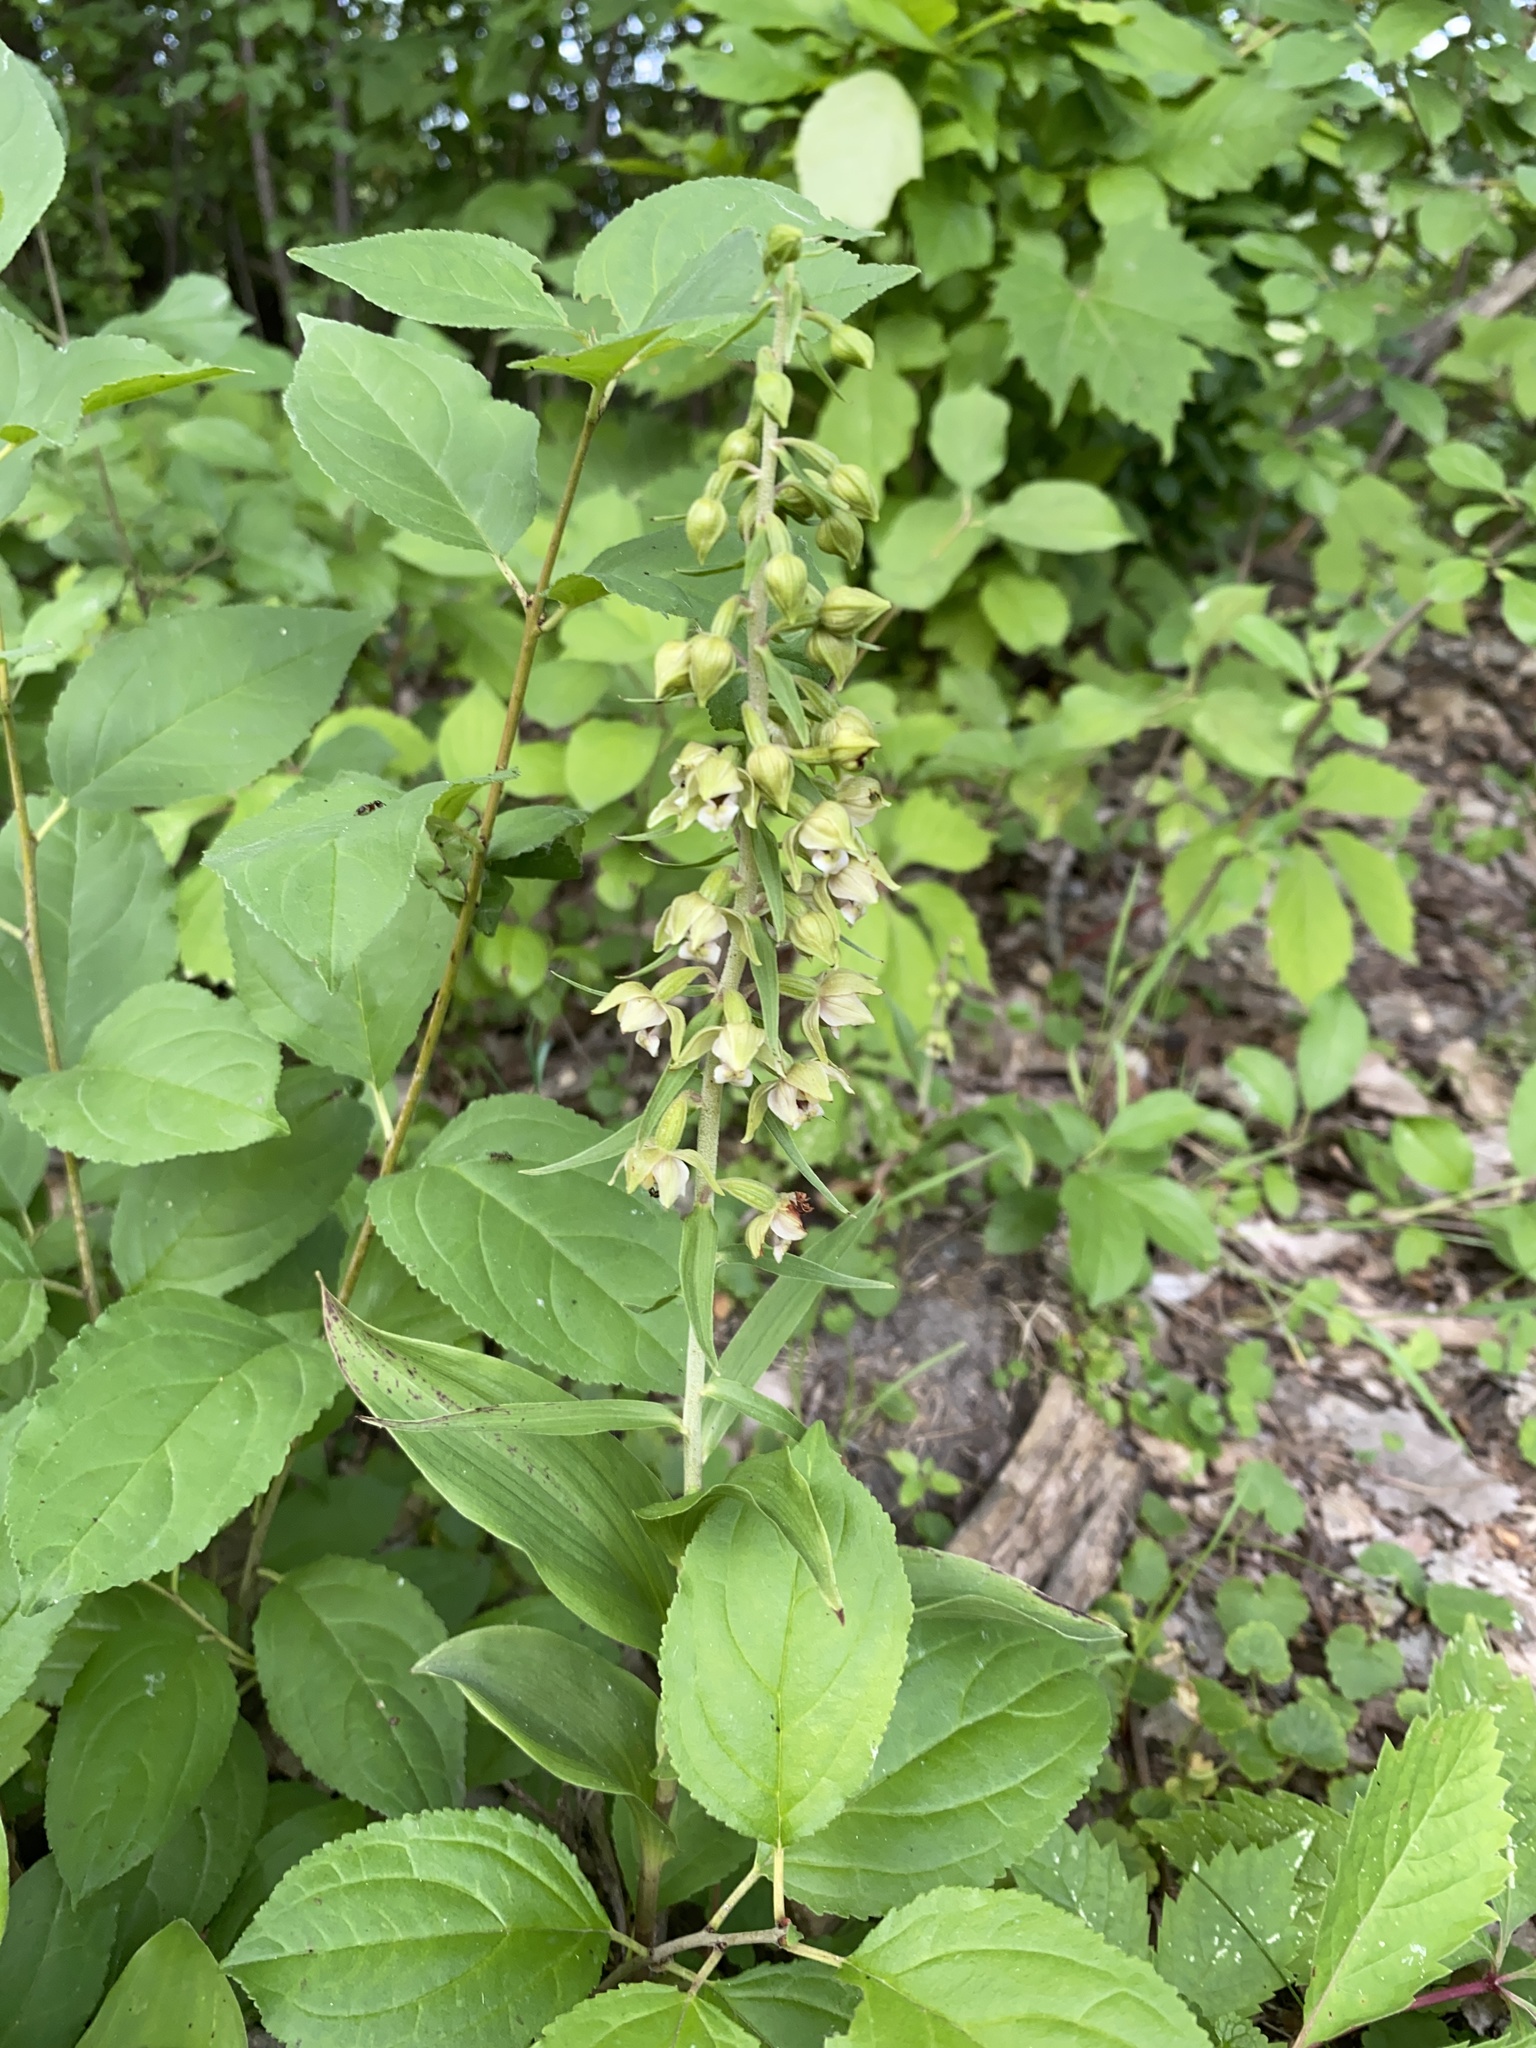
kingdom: Plantae
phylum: Tracheophyta
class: Liliopsida
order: Asparagales
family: Orchidaceae
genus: Epipactis
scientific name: Epipactis helleborine
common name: Broad-leaved helleborine
